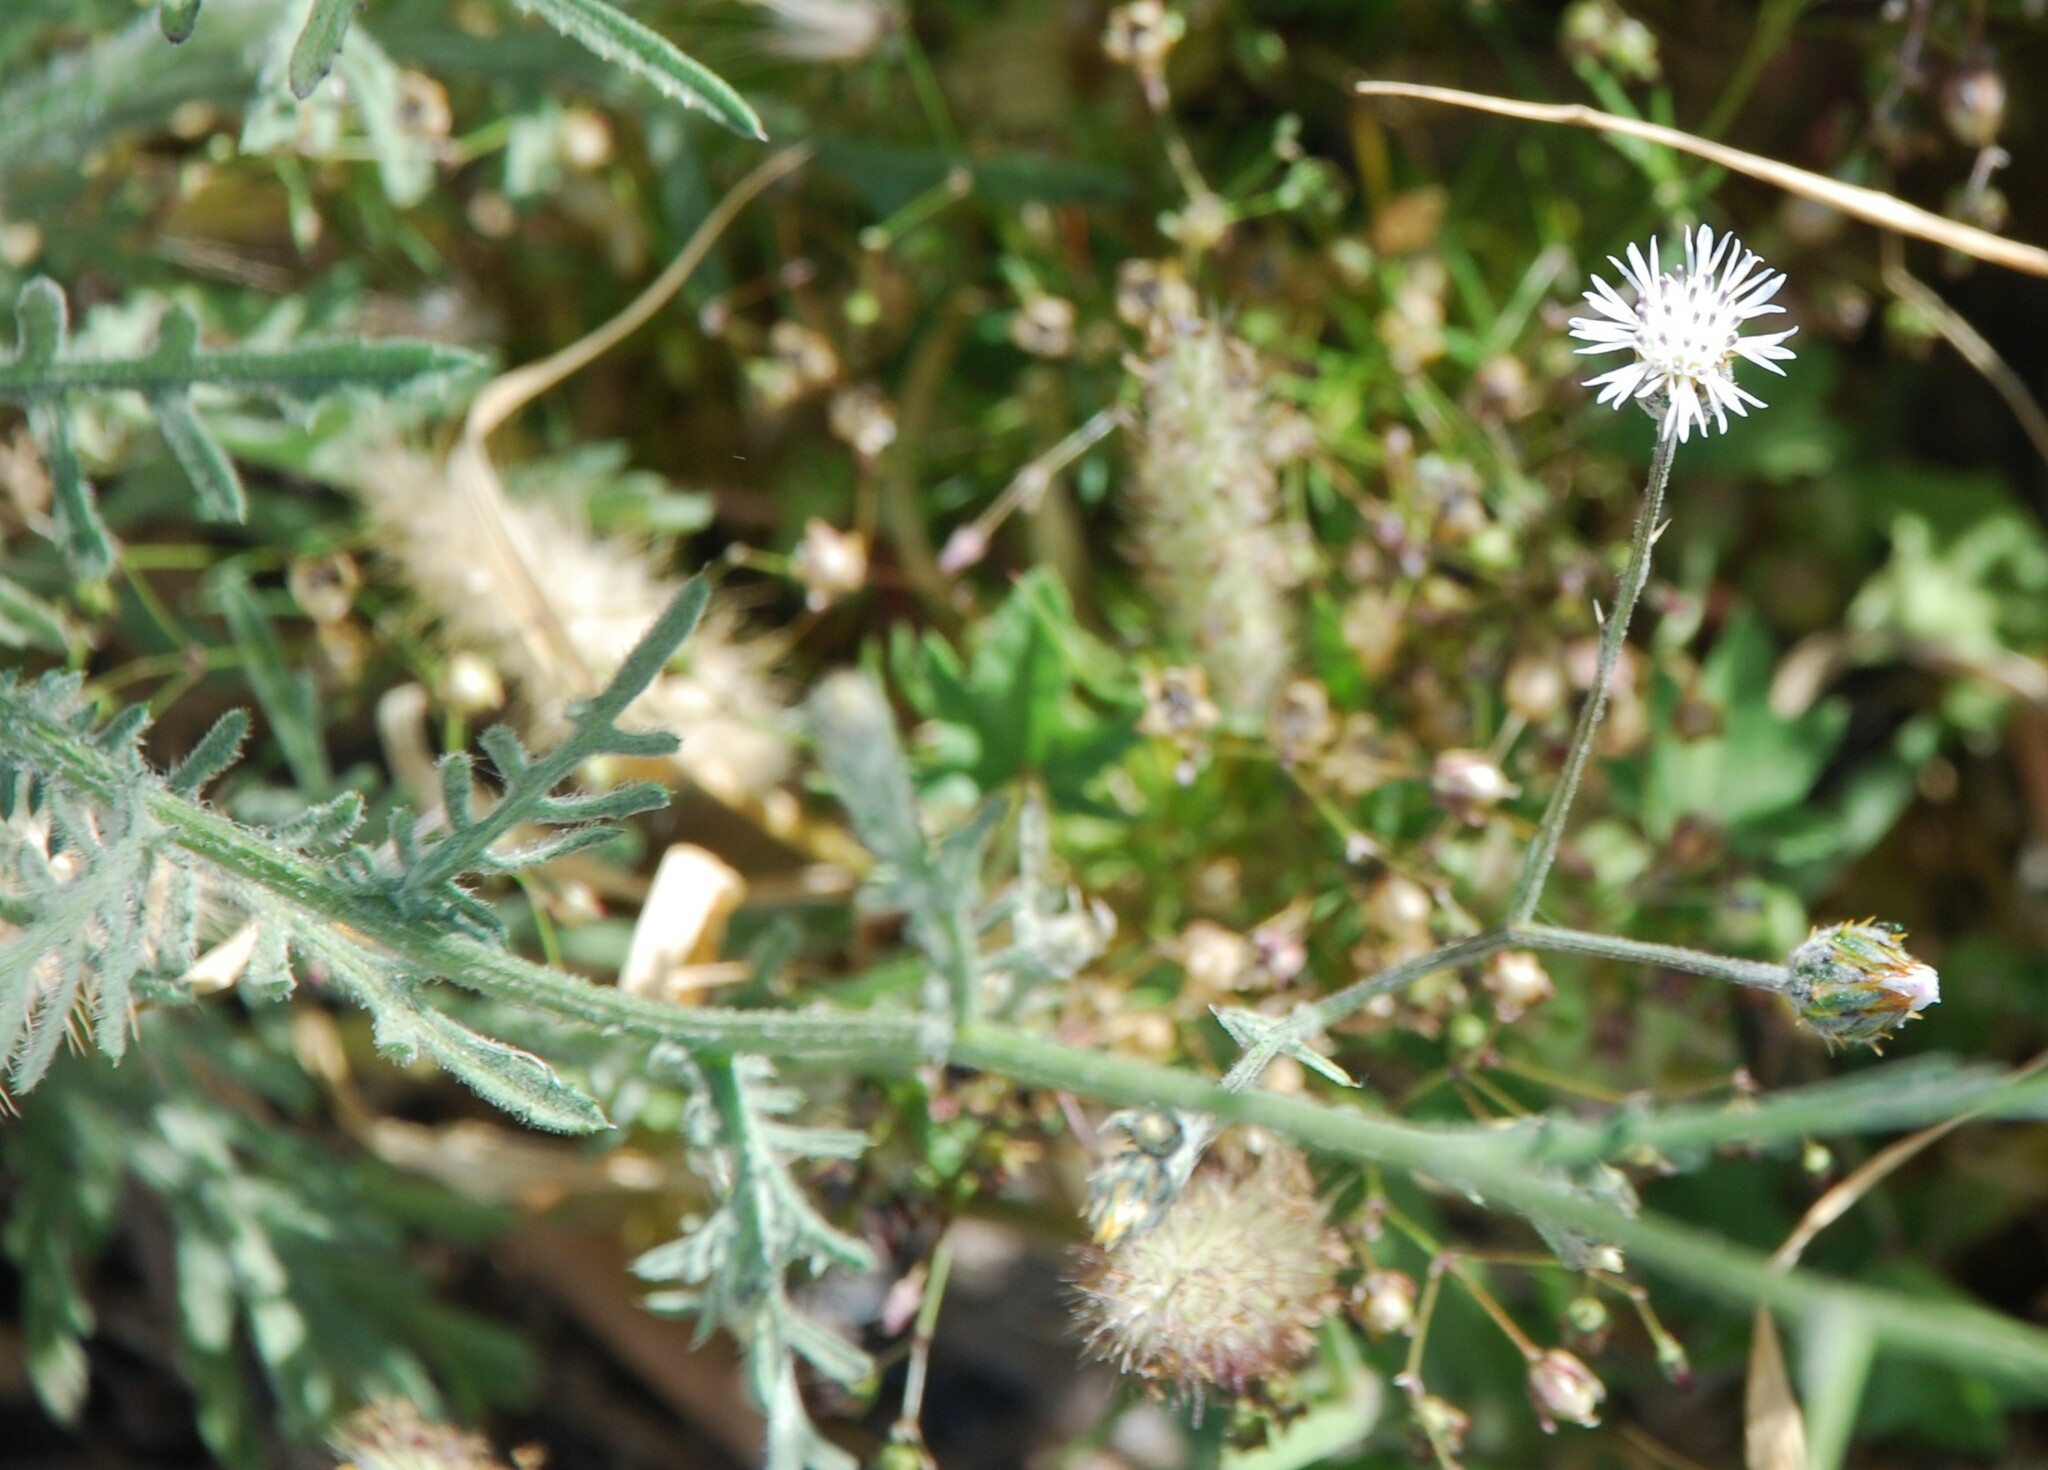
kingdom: Plantae
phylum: Tracheophyta
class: Magnoliopsida
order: Asterales
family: Asteraceae
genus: Volutaria
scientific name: Volutaria tubuliflora
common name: Desert knapweed
